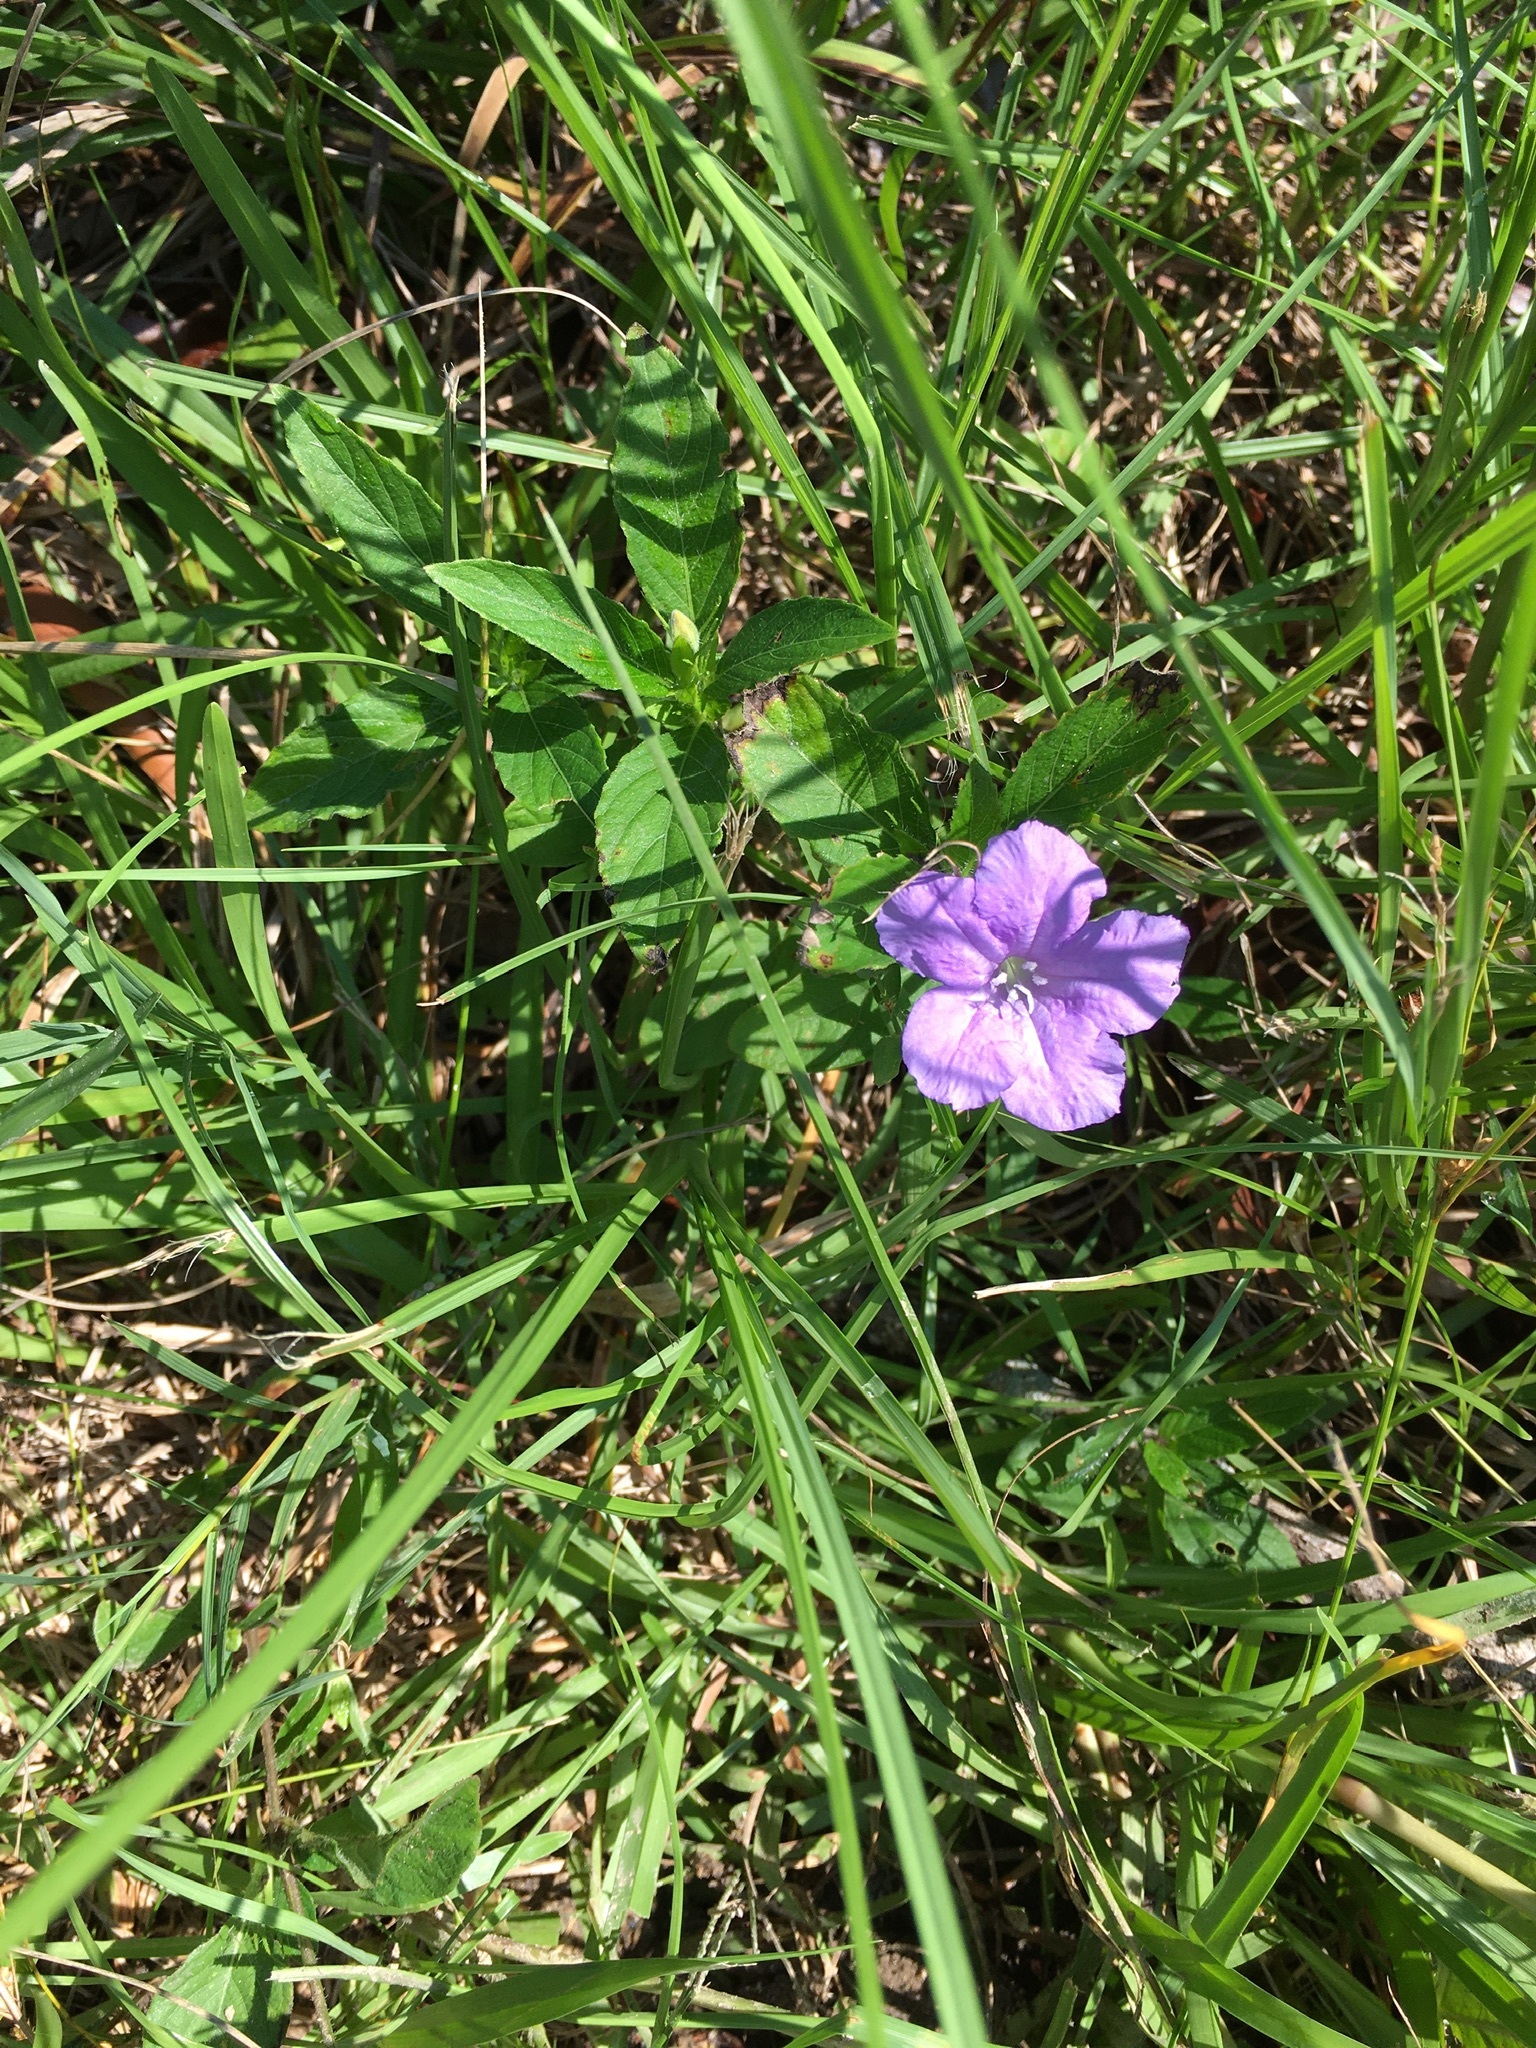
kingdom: Plantae
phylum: Tracheophyta
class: Magnoliopsida
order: Lamiales
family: Acanthaceae
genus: Ruellia
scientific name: Ruellia caroliniensis
